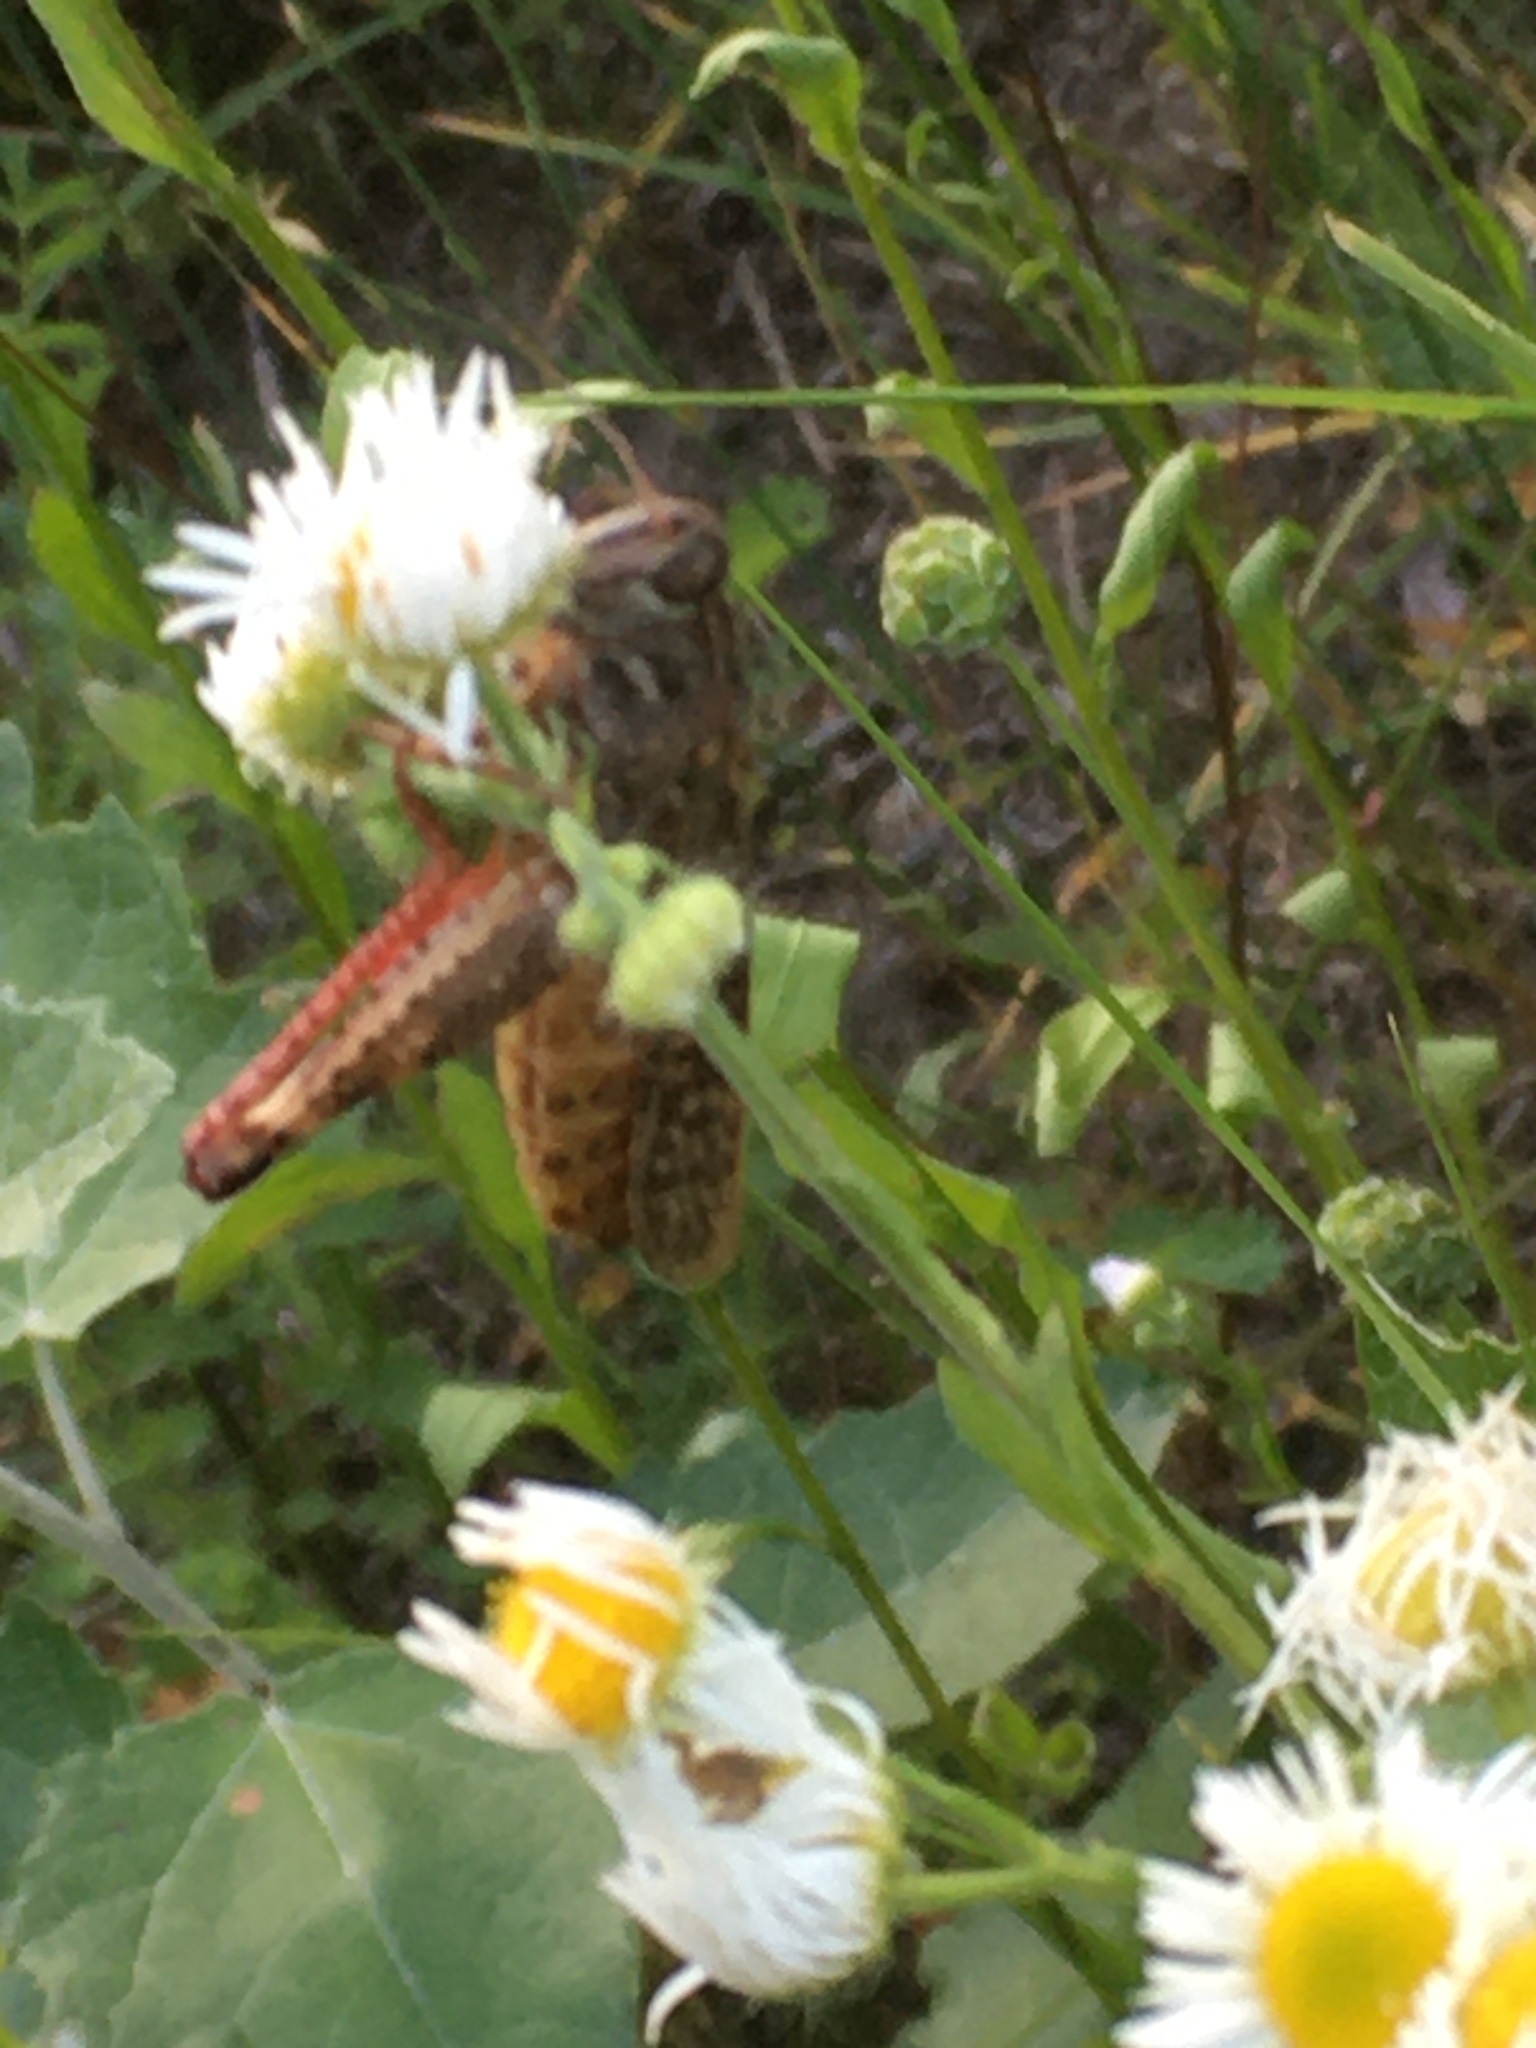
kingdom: Animalia
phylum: Arthropoda
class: Insecta
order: Orthoptera
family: Acrididae
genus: Calliptamus
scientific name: Calliptamus italicus
